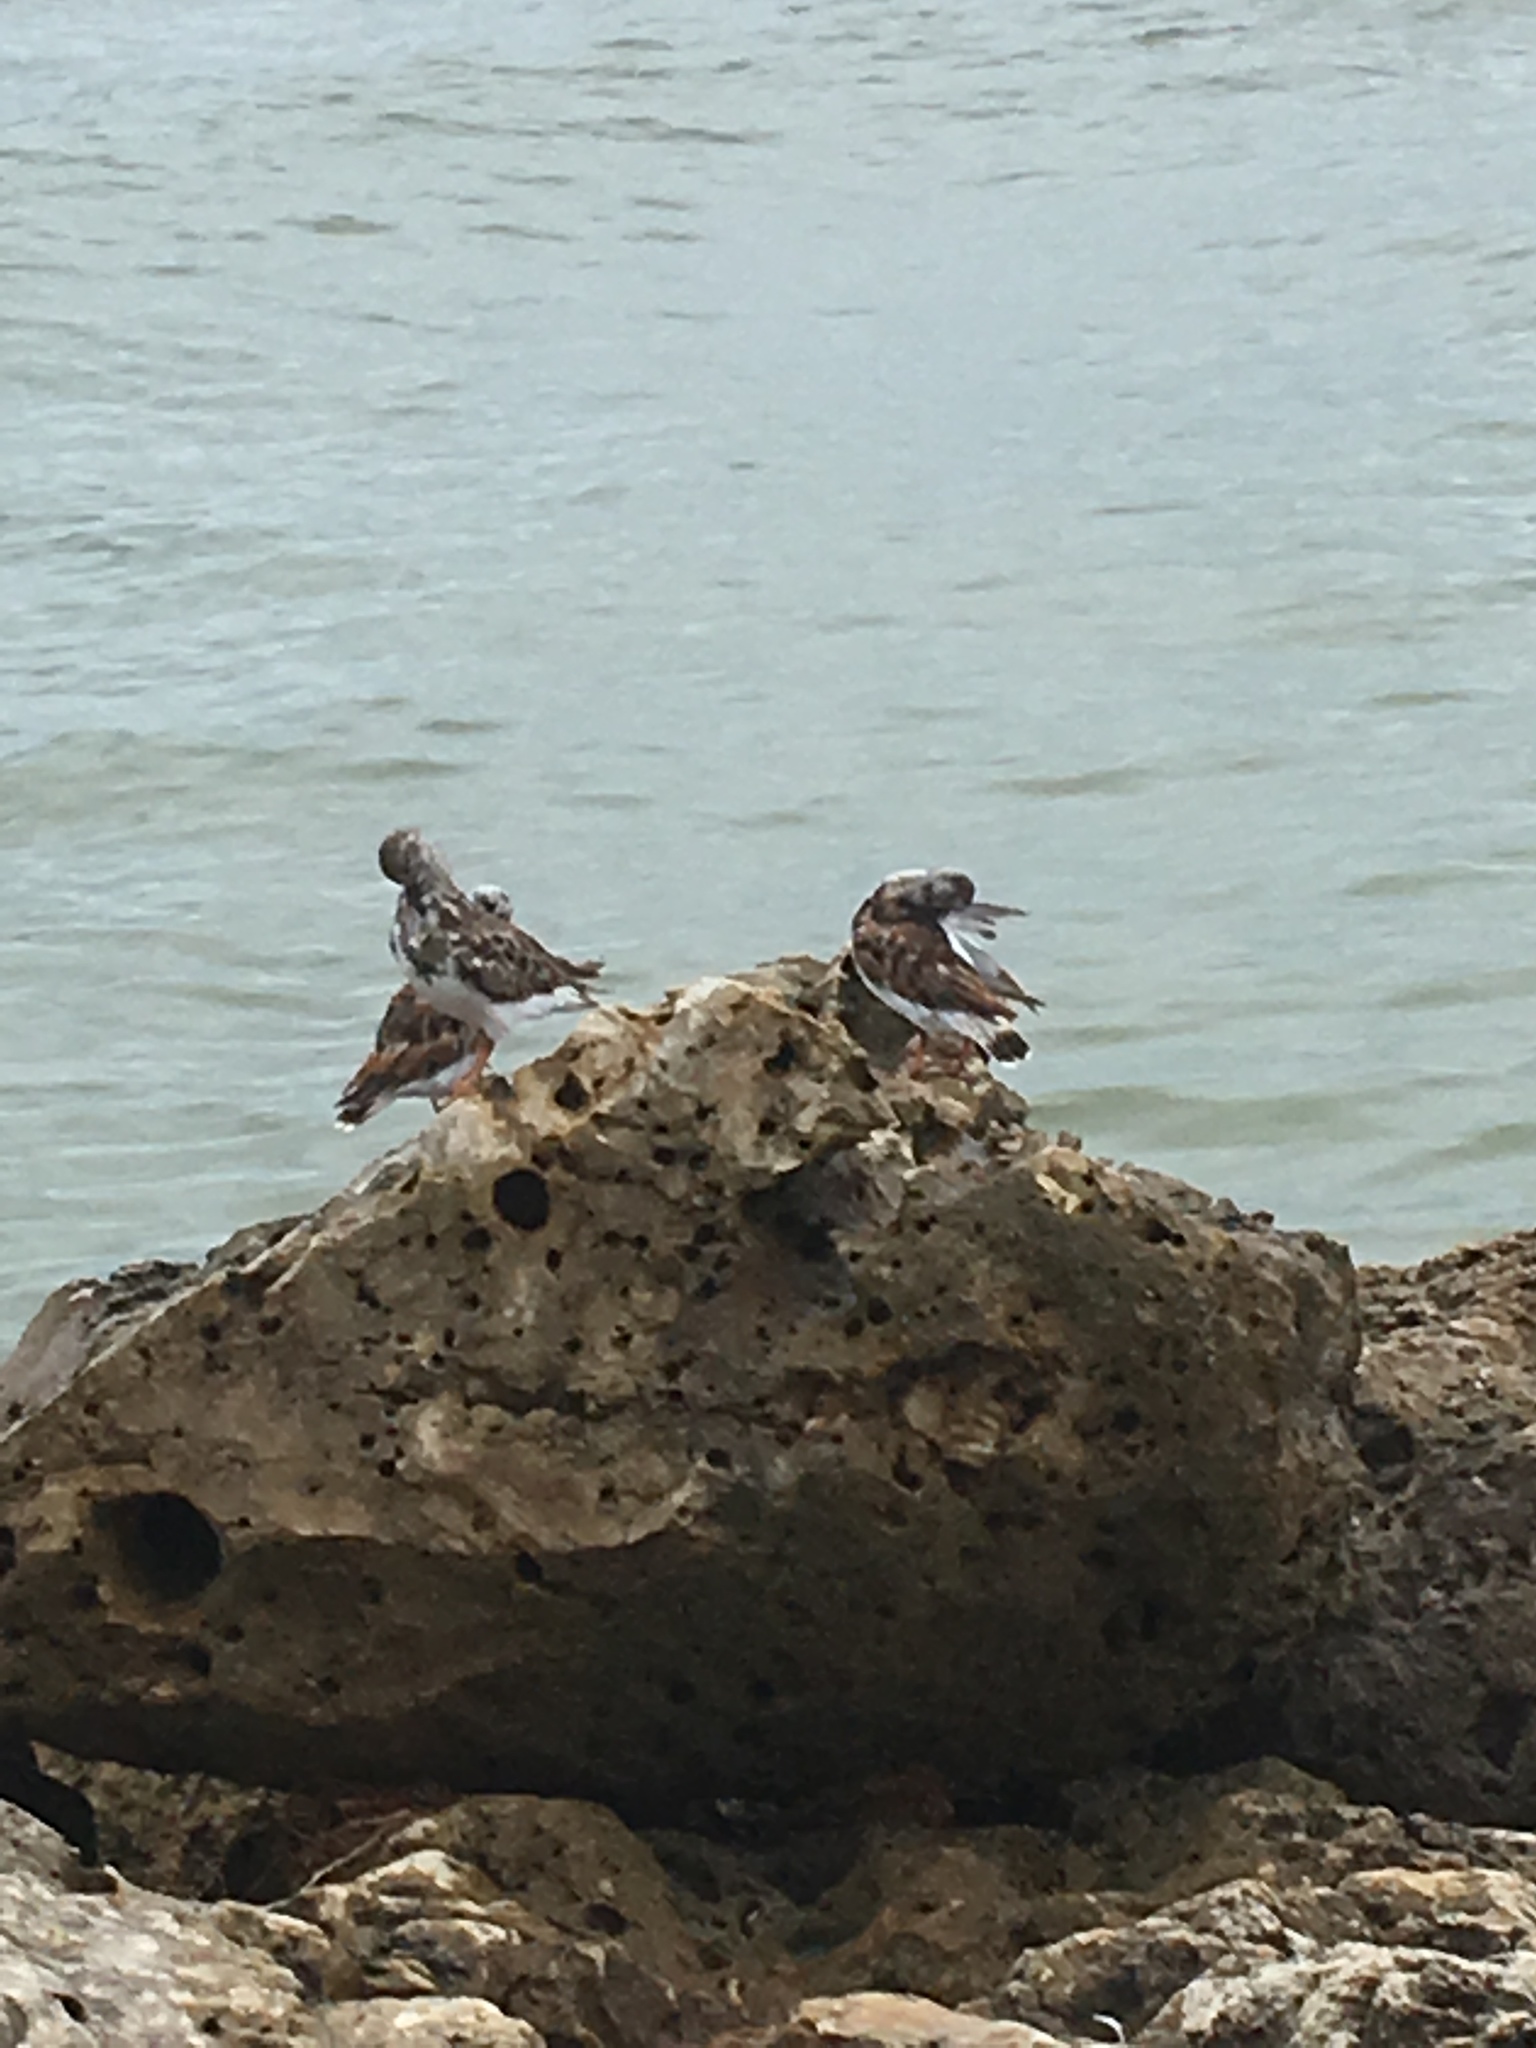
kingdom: Animalia
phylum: Chordata
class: Aves
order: Charadriiformes
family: Scolopacidae
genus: Arenaria
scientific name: Arenaria interpres
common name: Ruddy turnstone
